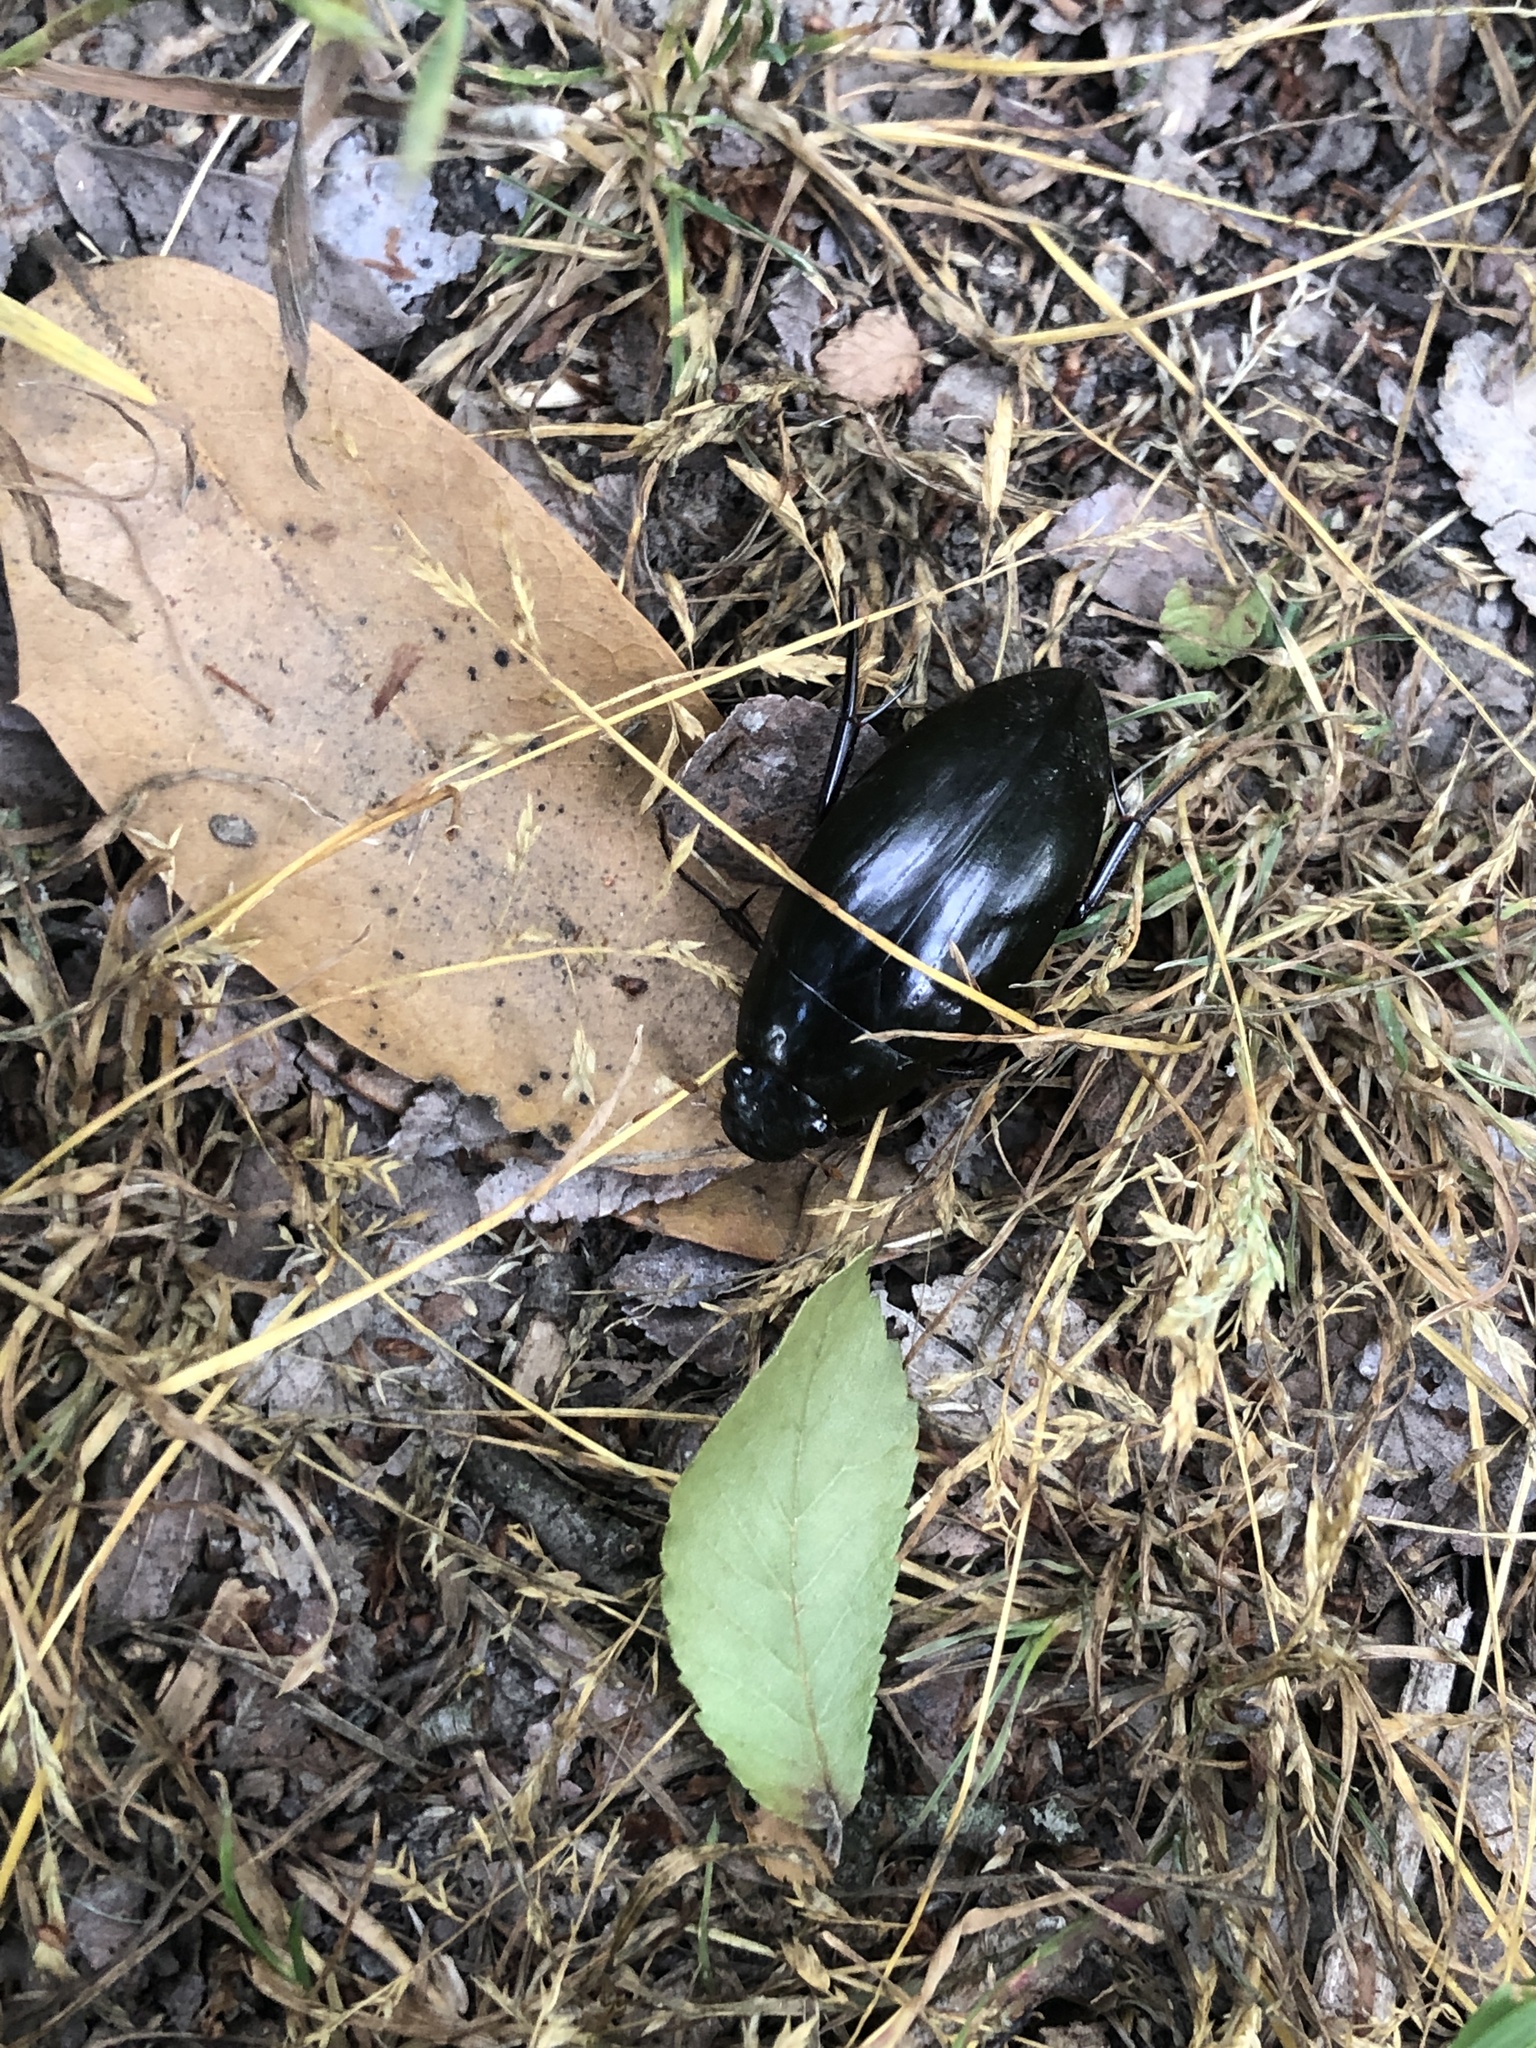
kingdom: Animalia
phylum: Arthropoda
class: Insecta
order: Coleoptera
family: Hydrophilidae
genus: Hydrophilus
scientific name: Hydrophilus
